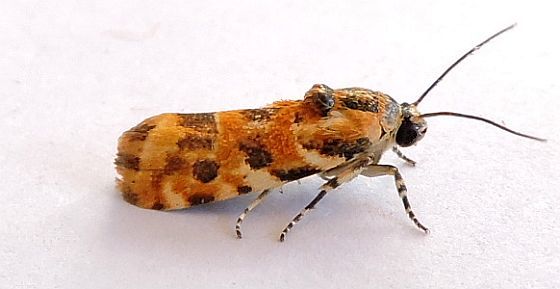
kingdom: Animalia
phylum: Arthropoda
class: Insecta
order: Lepidoptera
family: Noctuidae
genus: Spragueia
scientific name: Spragueia jaguaralis
